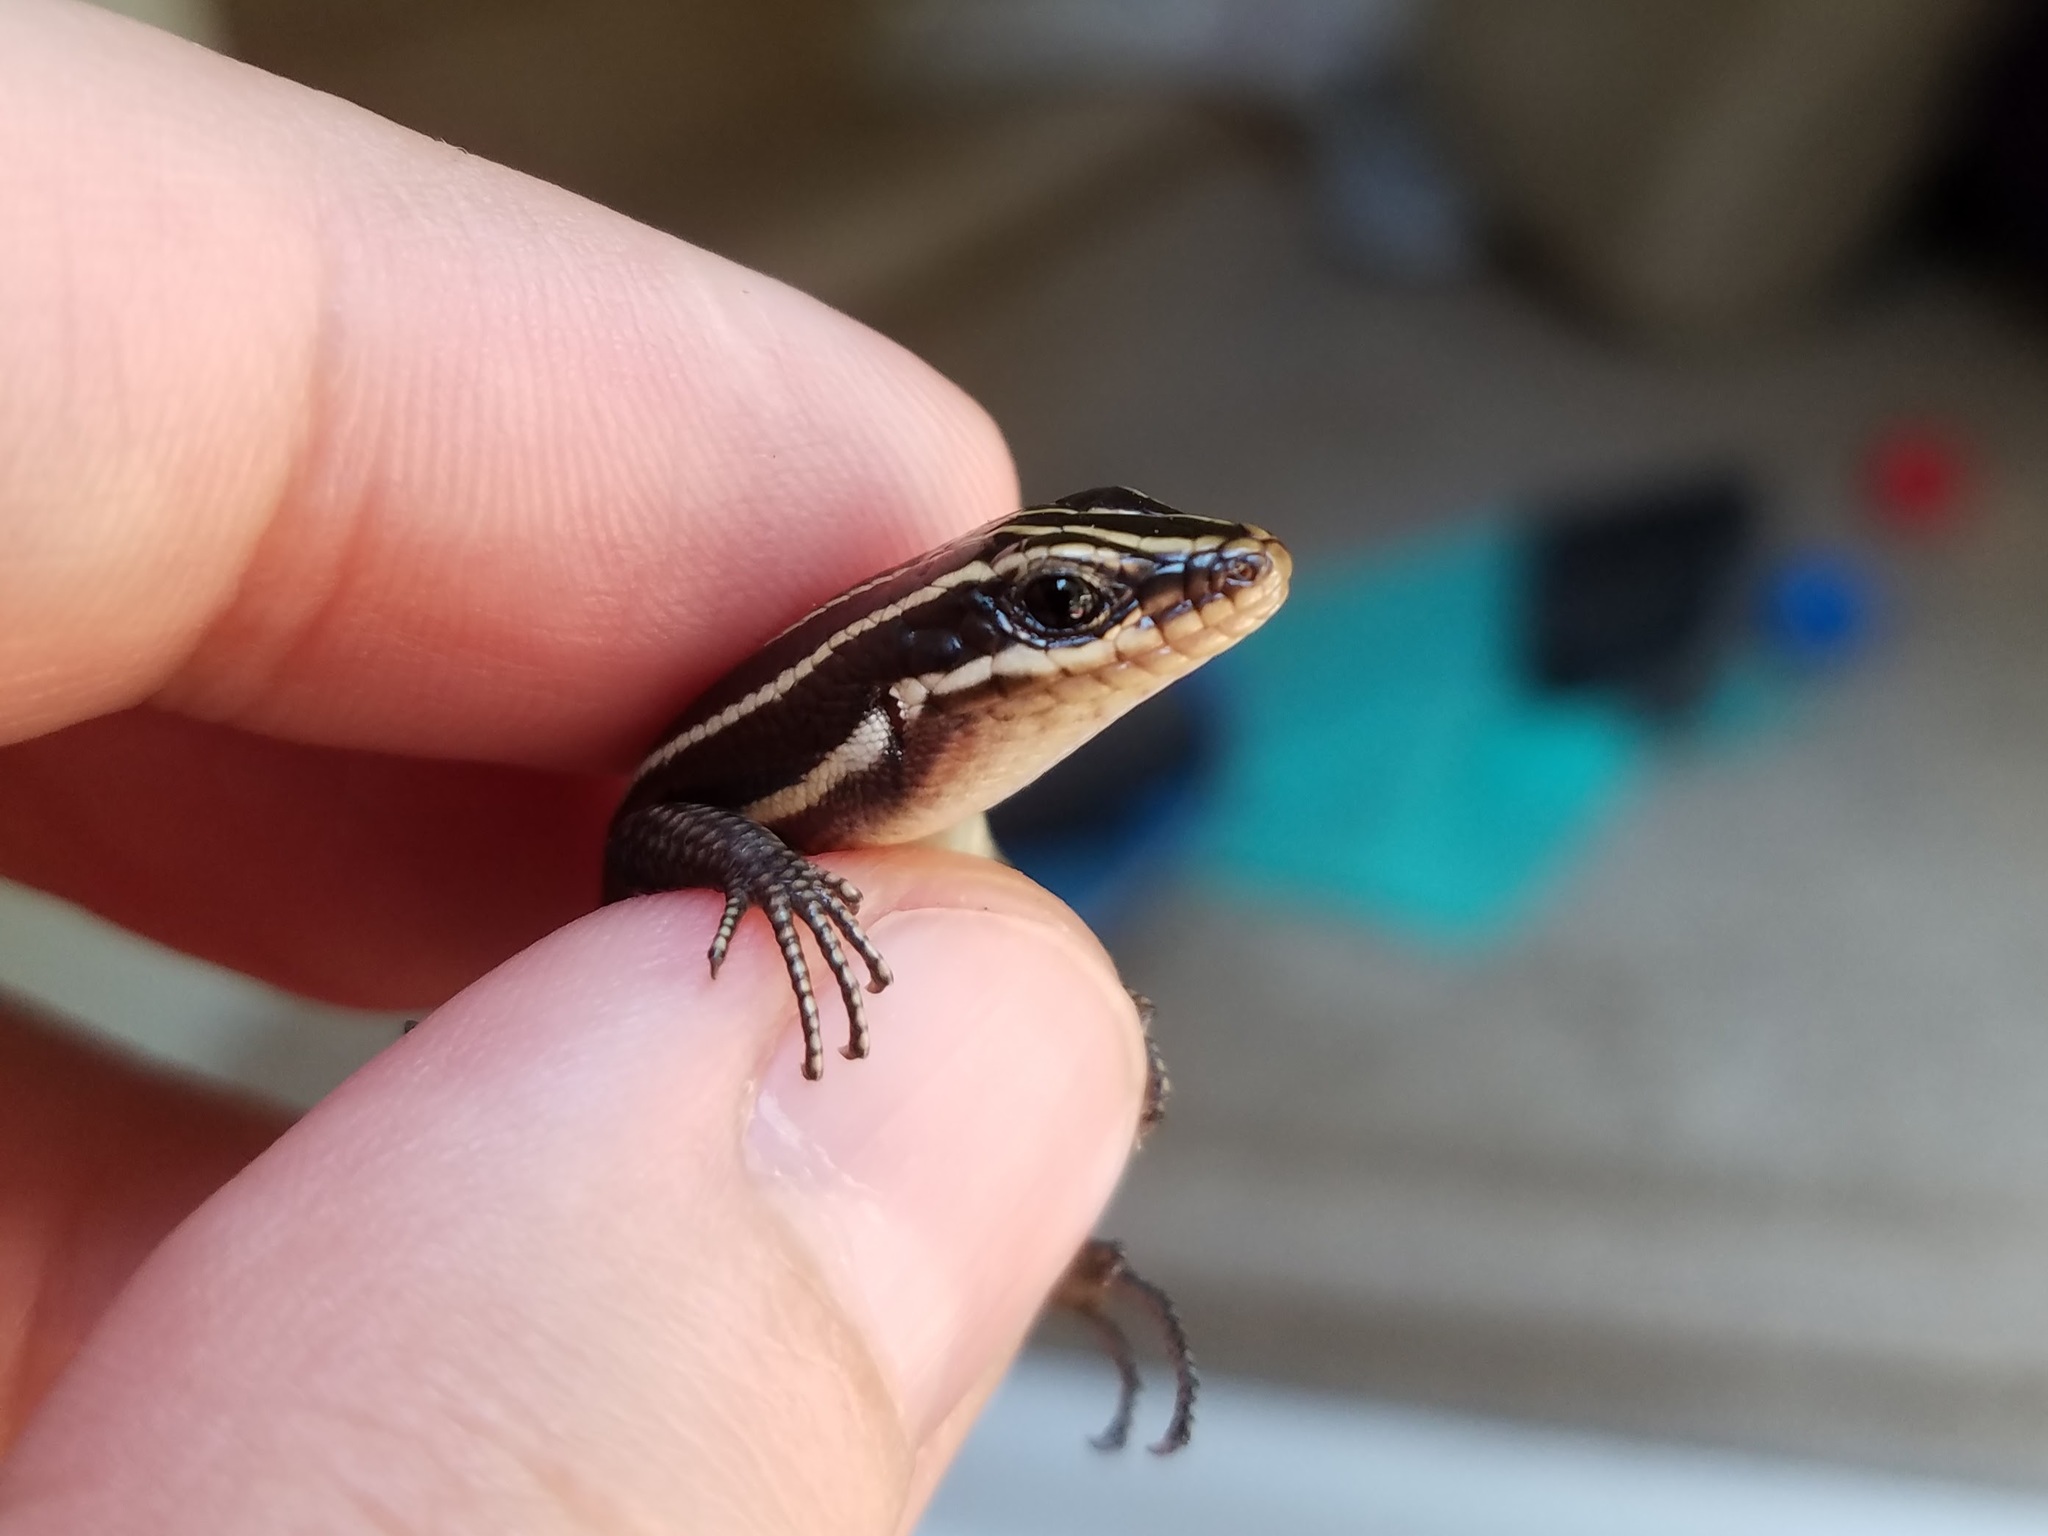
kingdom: Animalia
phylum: Chordata
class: Squamata
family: Scincidae
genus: Plestiodon
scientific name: Plestiodon fasciatus
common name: Five-lined skink
